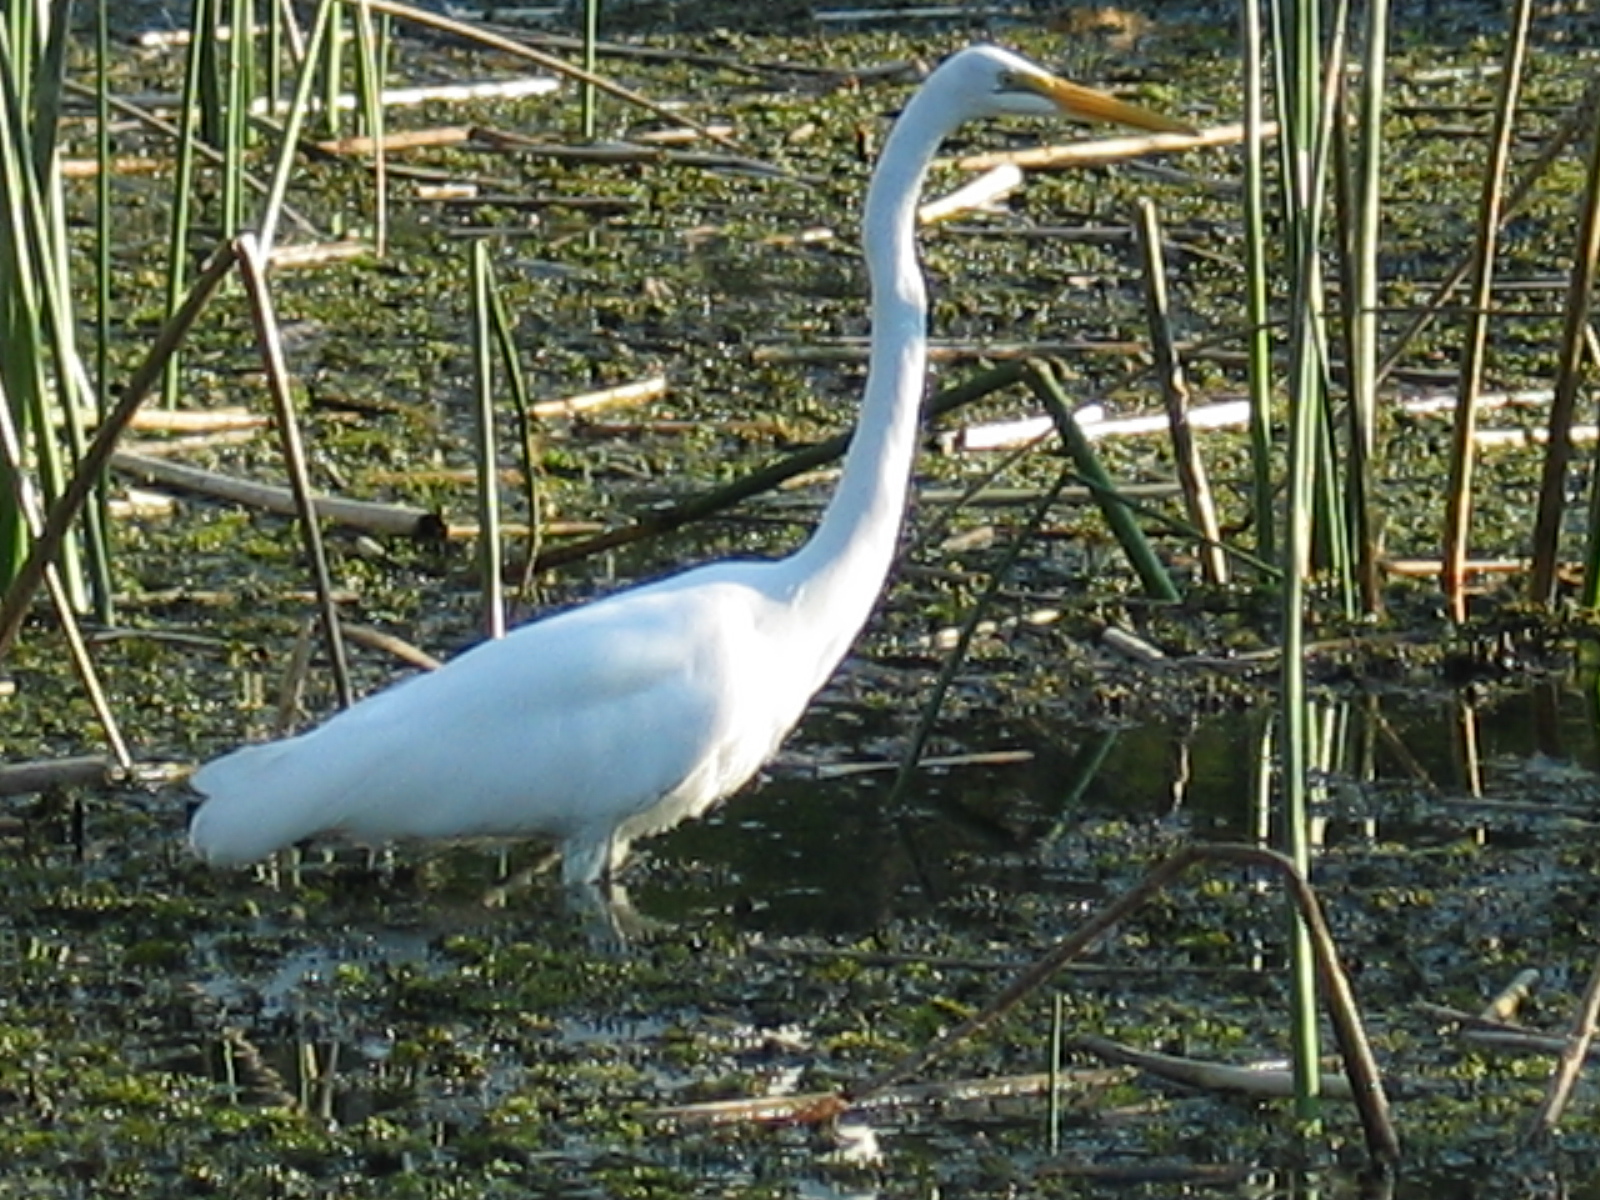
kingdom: Animalia
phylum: Chordata
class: Aves
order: Pelecaniformes
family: Ardeidae
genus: Ardea
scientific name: Ardea alba
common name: Great egret
